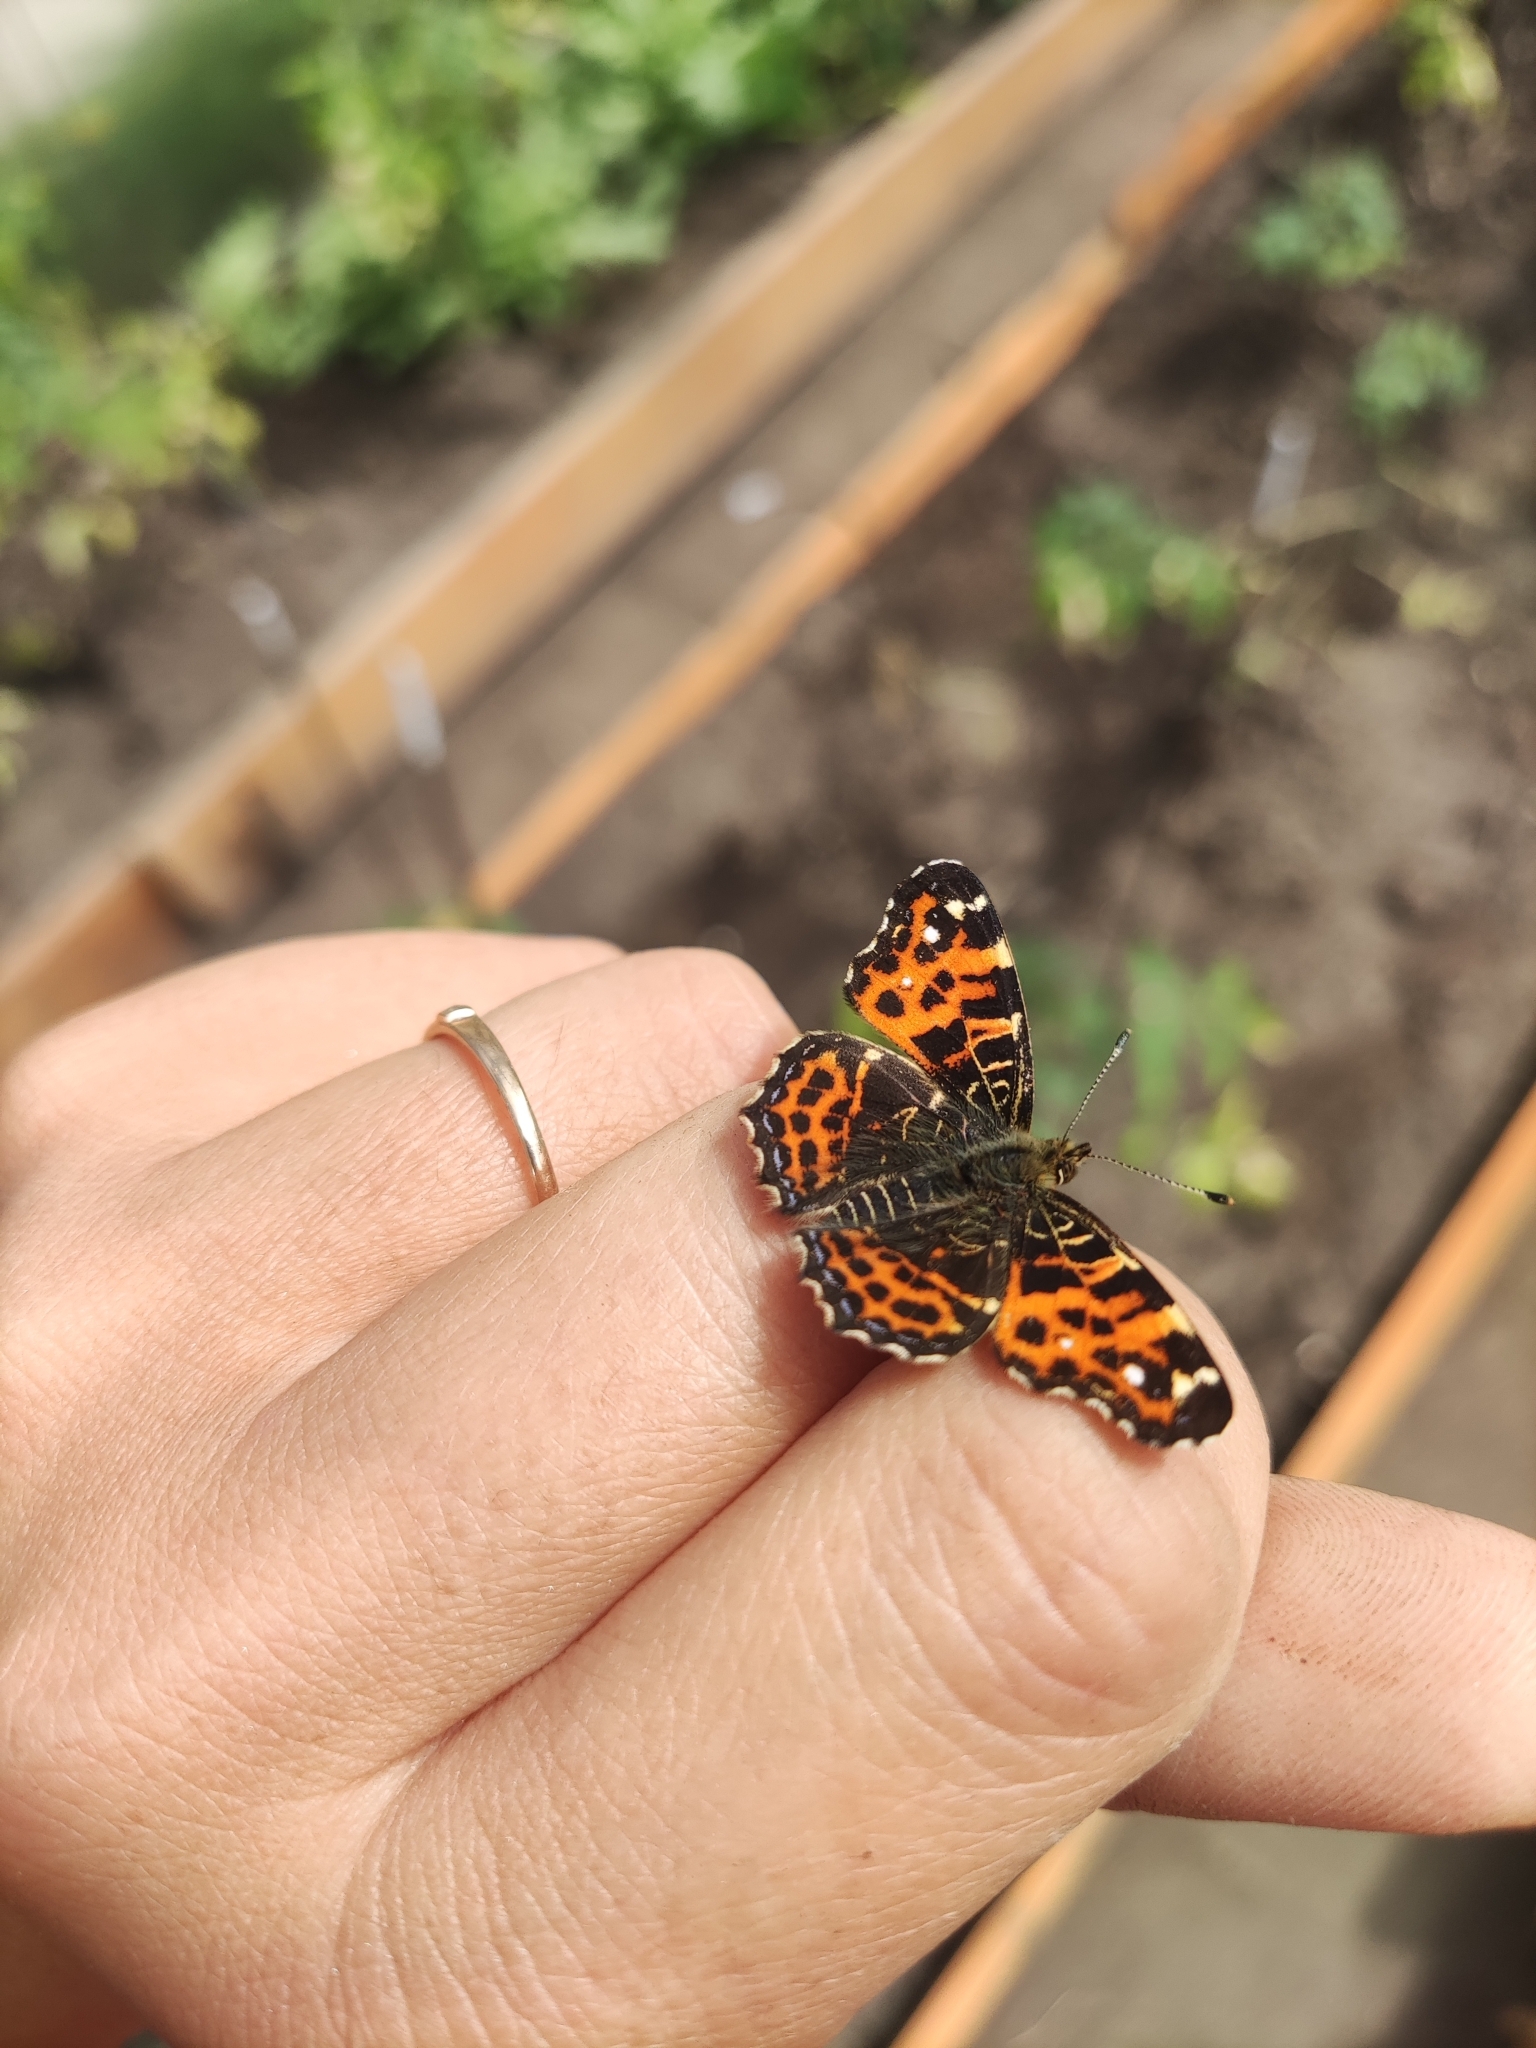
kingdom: Animalia
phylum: Arthropoda
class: Insecta
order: Lepidoptera
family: Nymphalidae
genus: Araschnia
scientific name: Araschnia levana
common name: Map butterfly
